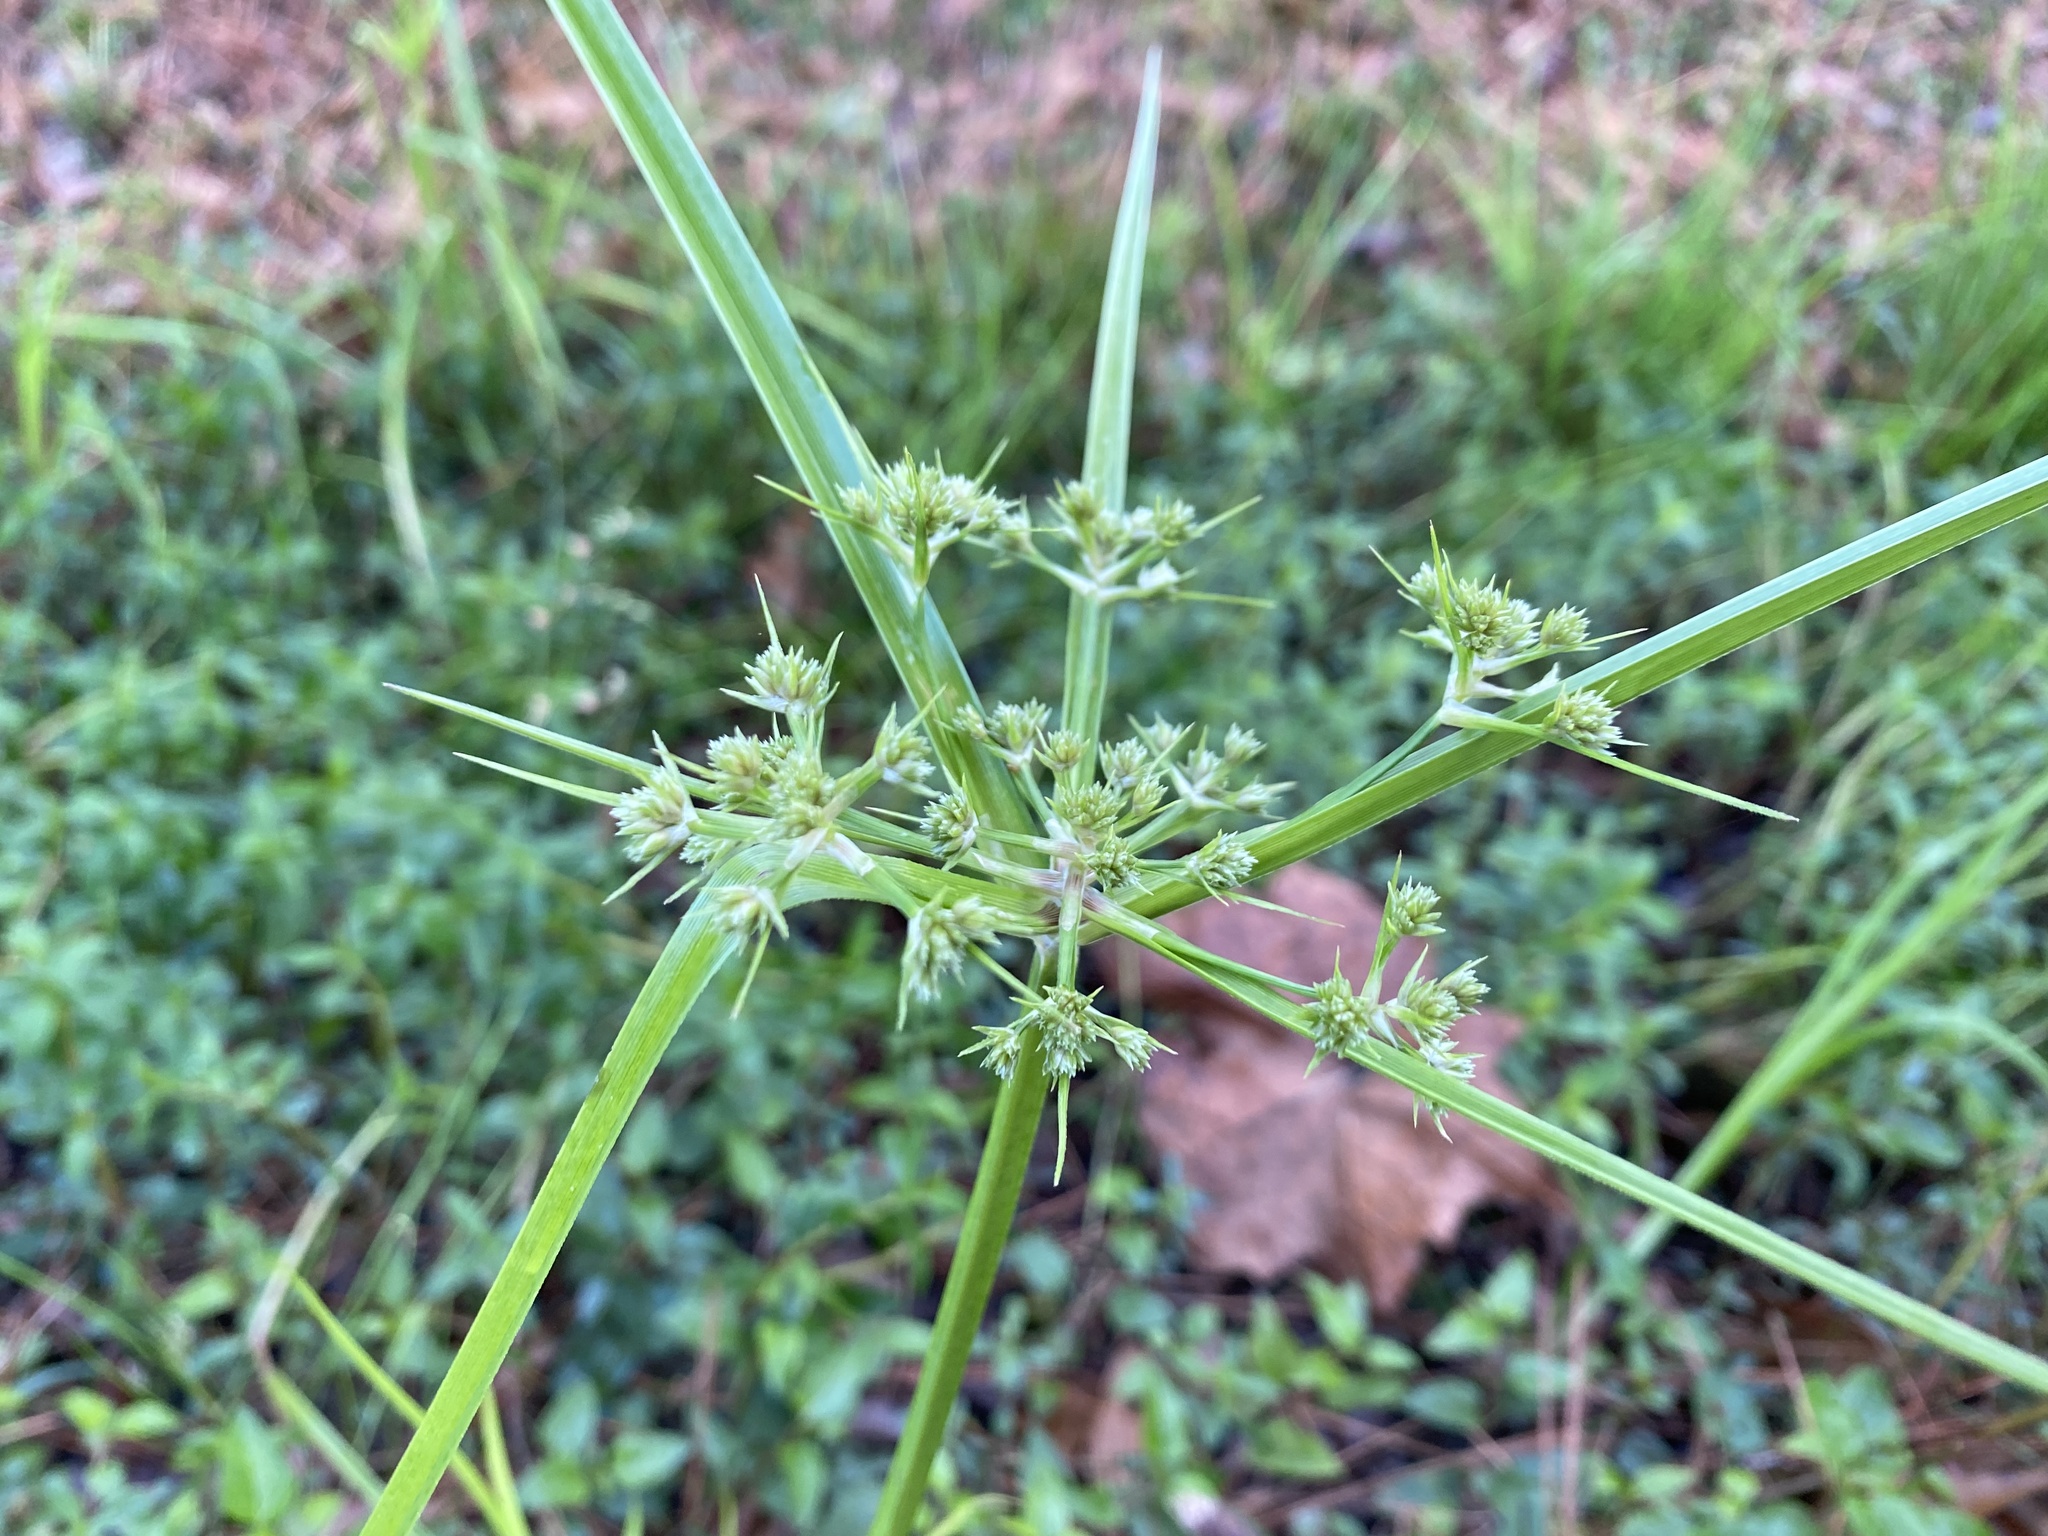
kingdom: Plantae
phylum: Tracheophyta
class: Liliopsida
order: Poales
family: Cyperaceae
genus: Cyperus
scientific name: Cyperus virens
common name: Green flatsedge
